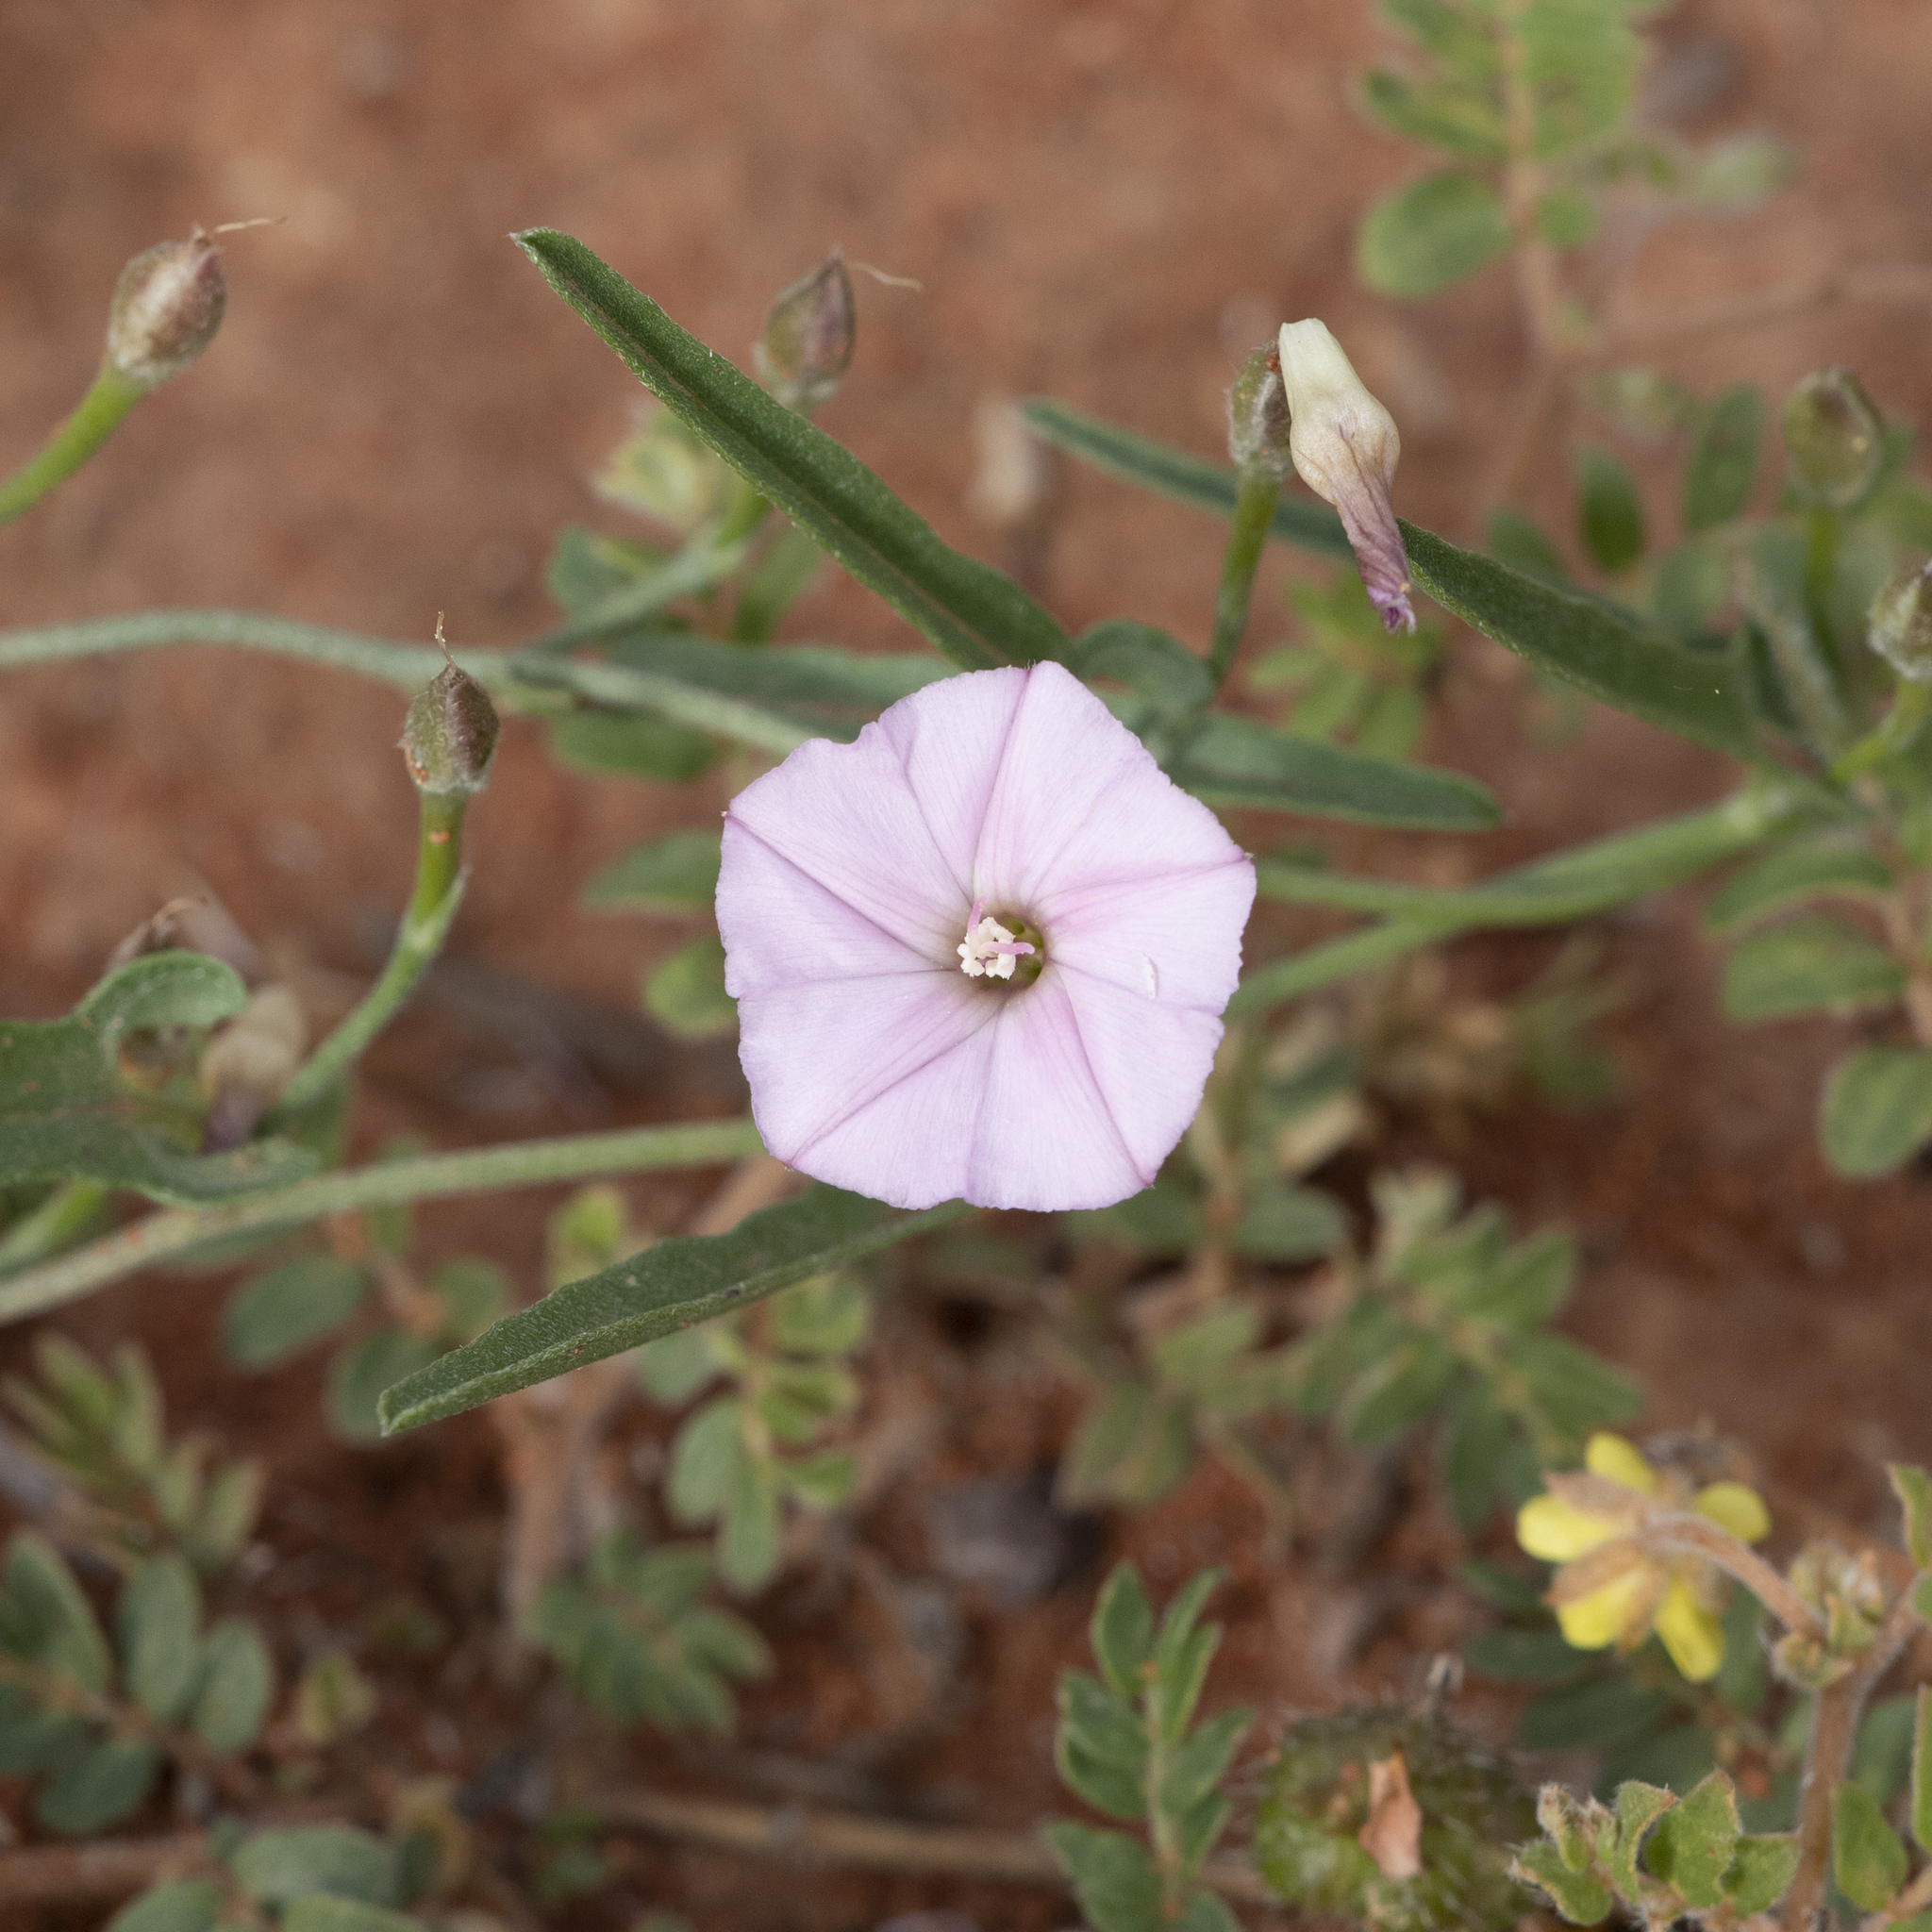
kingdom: Plantae
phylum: Tracheophyta
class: Magnoliopsida
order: Solanales
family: Convolvulaceae
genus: Convolvulus
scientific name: Convolvulus remotus
